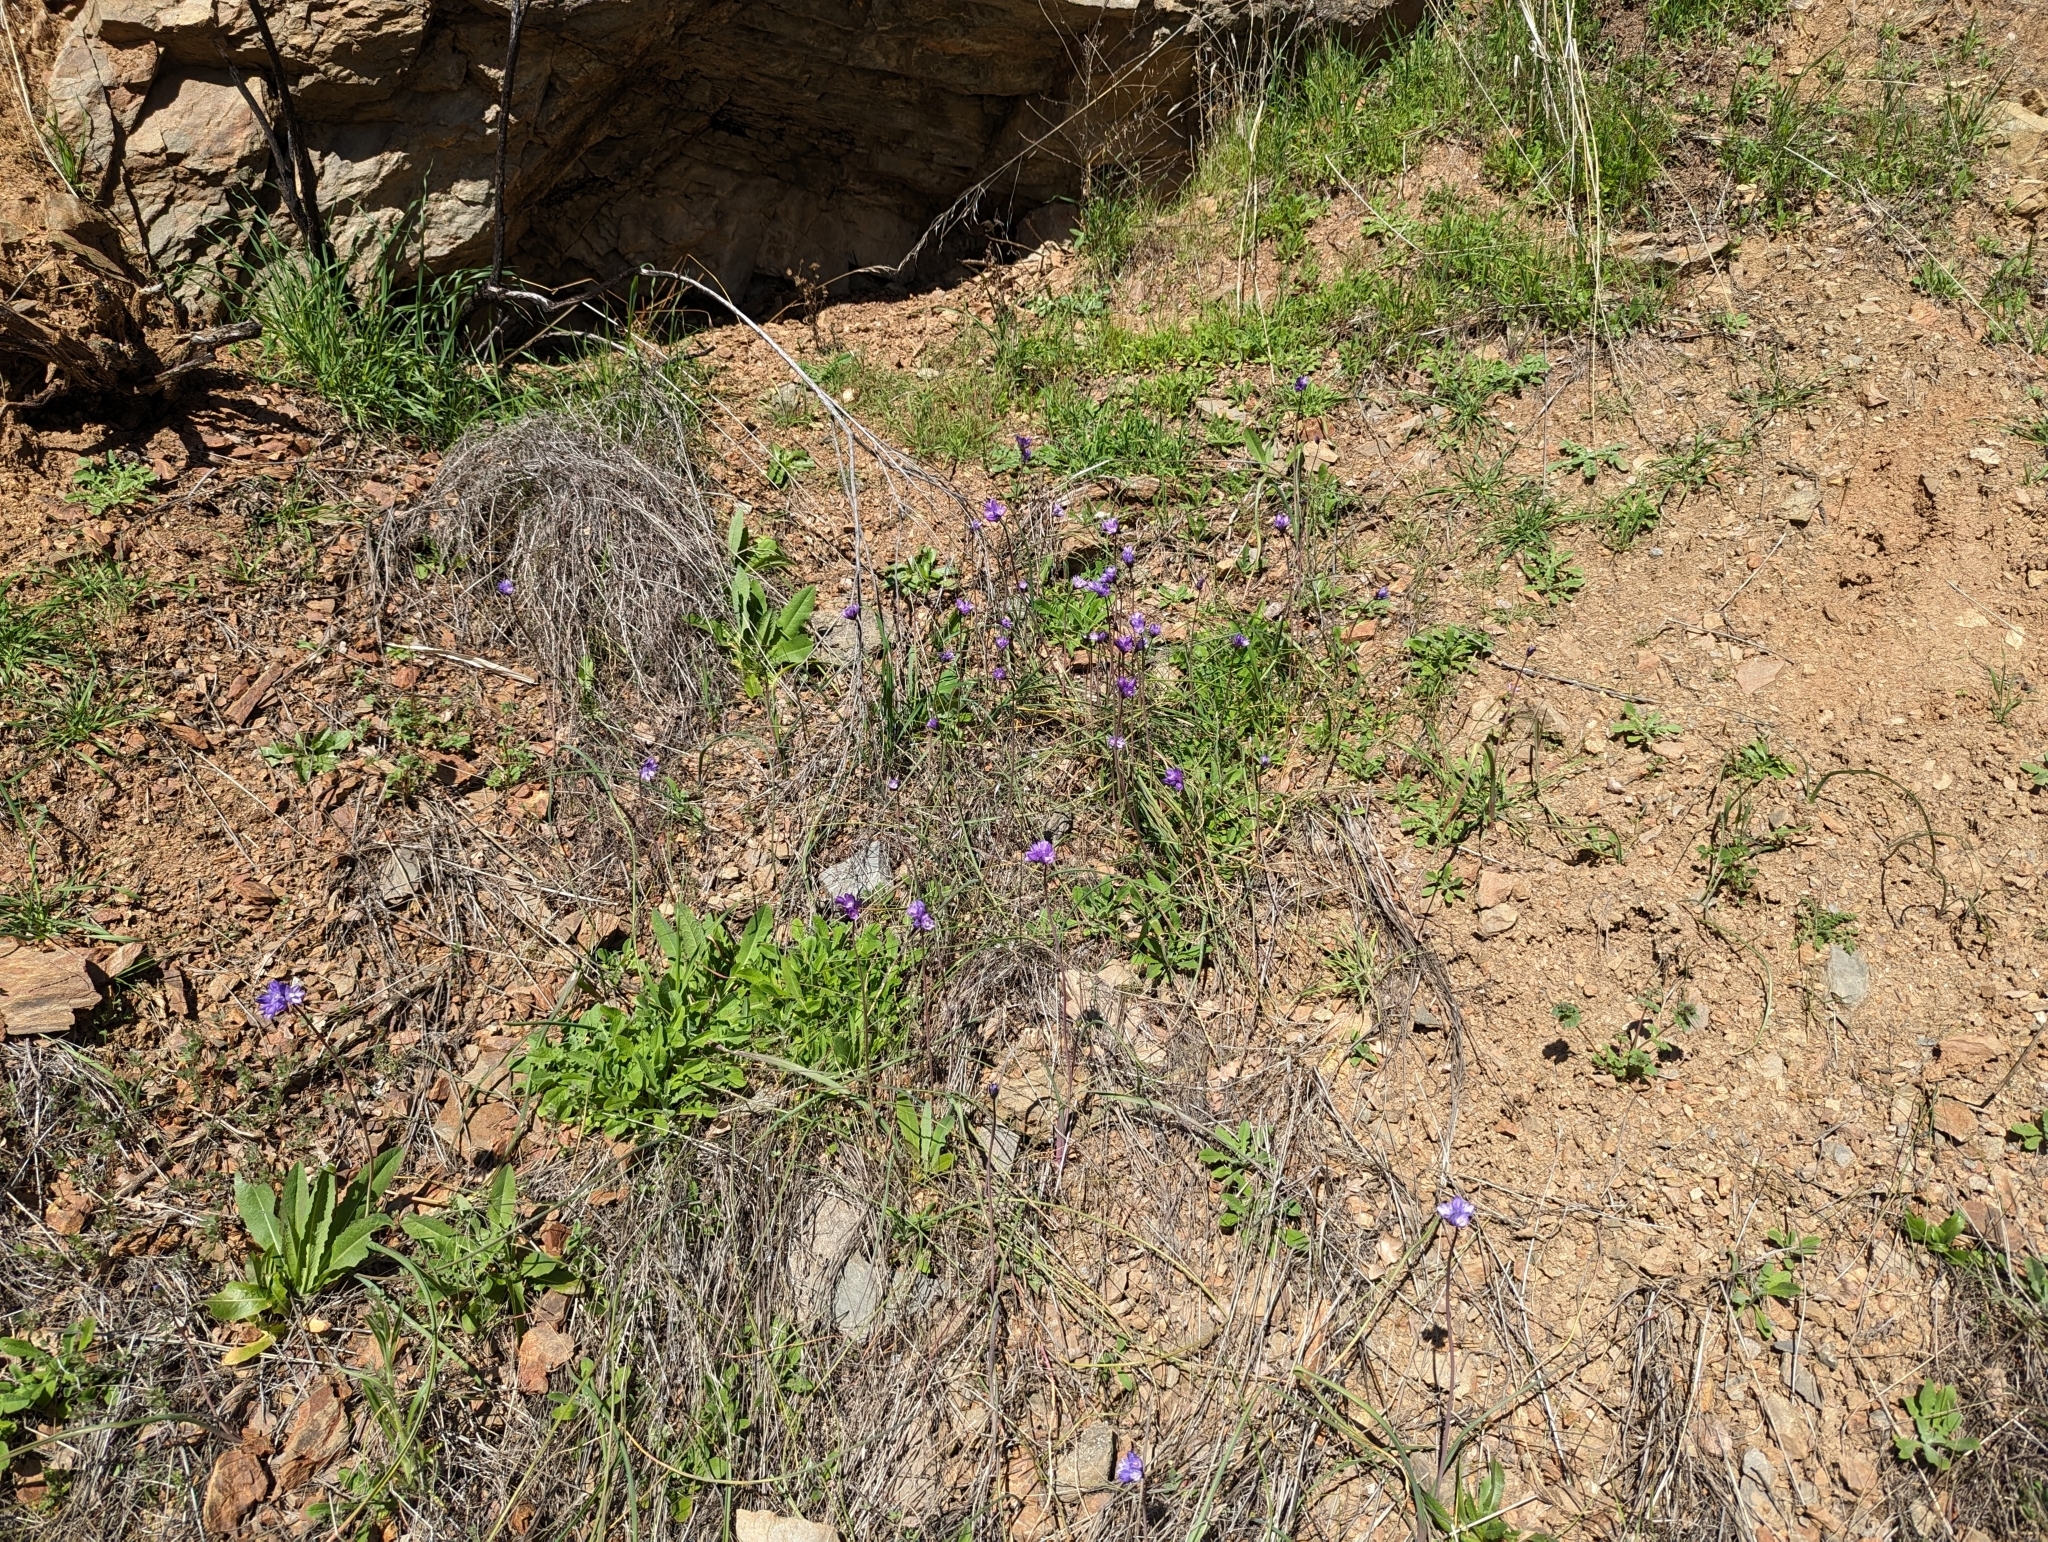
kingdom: Plantae
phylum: Tracheophyta
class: Liliopsida
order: Asparagales
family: Asparagaceae
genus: Dipterostemon
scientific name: Dipterostemon capitatus
